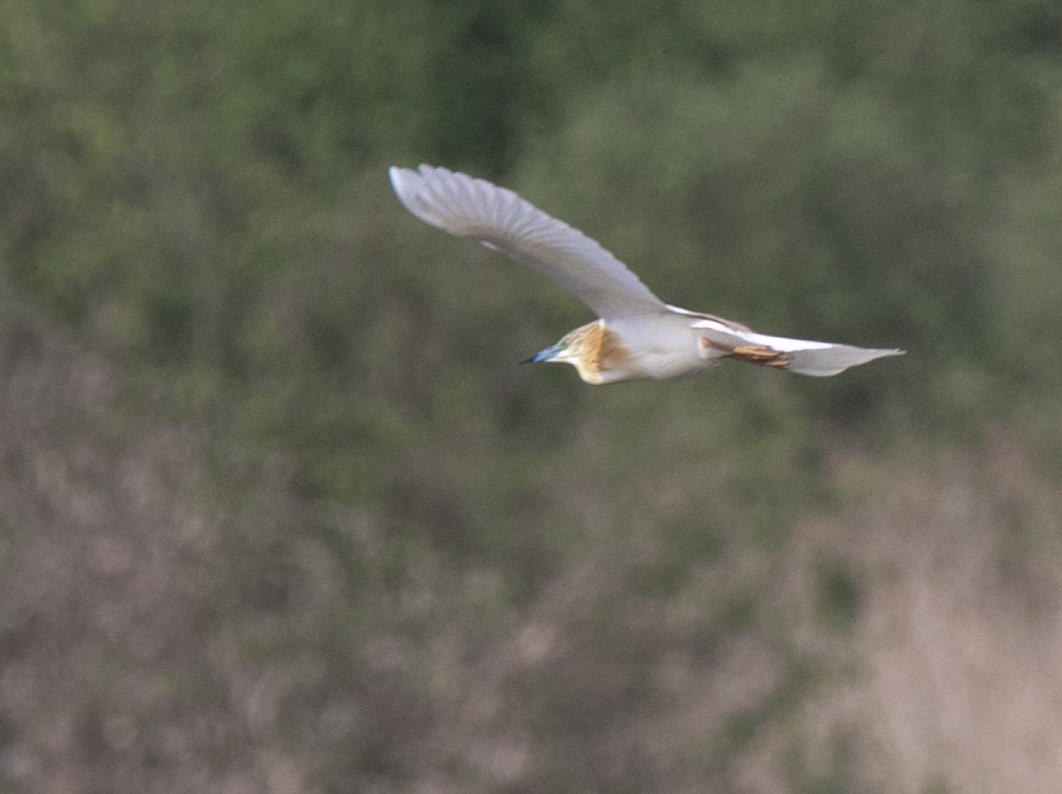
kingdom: Animalia
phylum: Chordata
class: Aves
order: Pelecaniformes
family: Ardeidae
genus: Ardeola
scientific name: Ardeola ralloides
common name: Squacco heron
